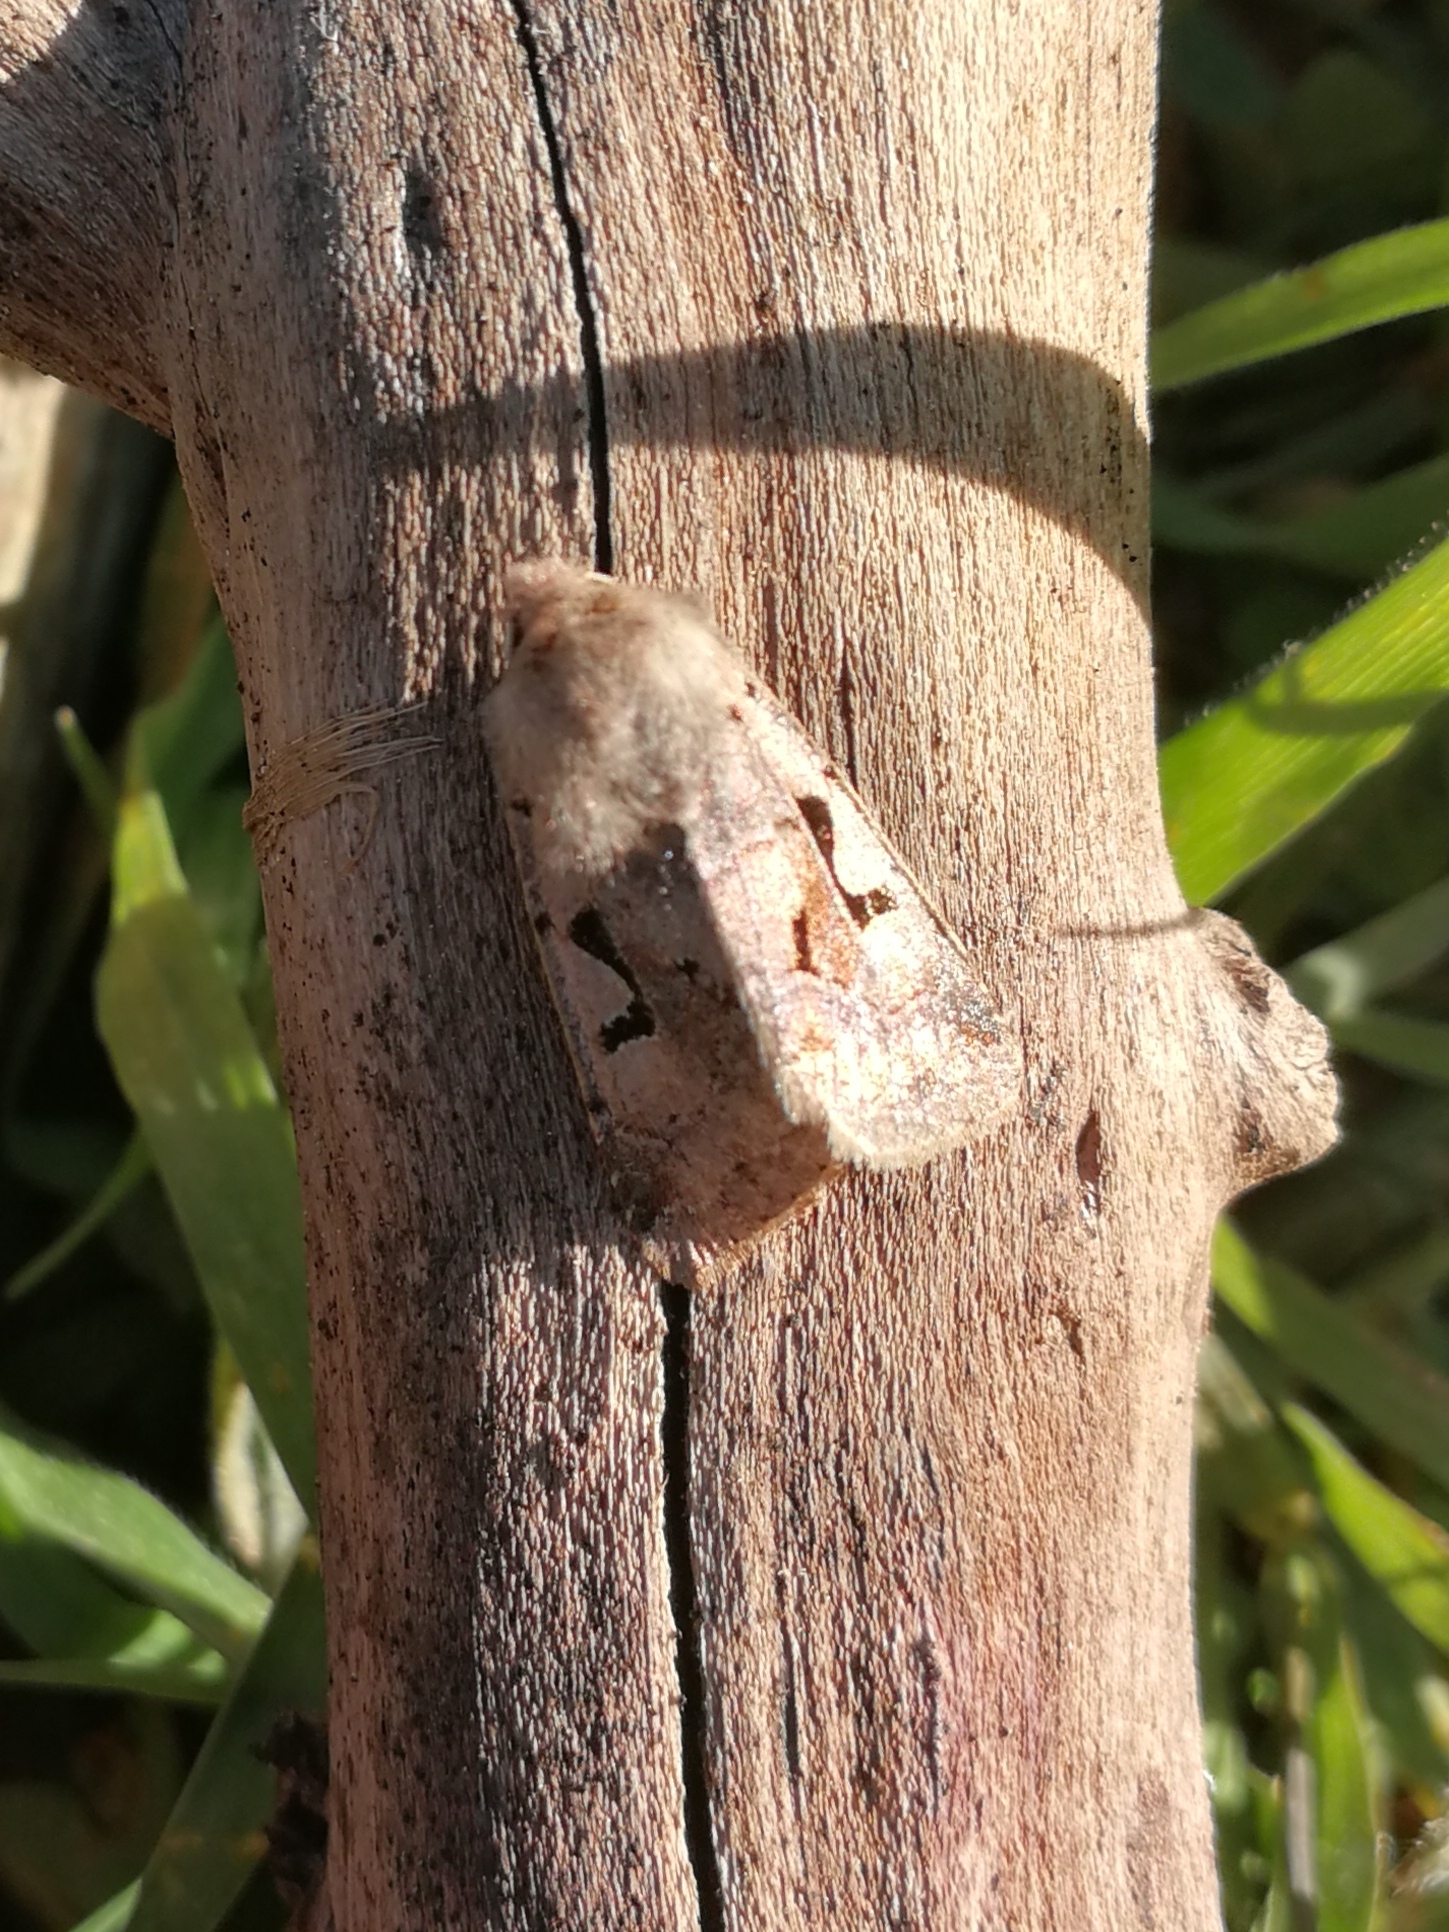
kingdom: Animalia
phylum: Arthropoda
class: Insecta
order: Lepidoptera
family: Noctuidae
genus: Orthosia
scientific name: Orthosia gothica
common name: Hebrew character
